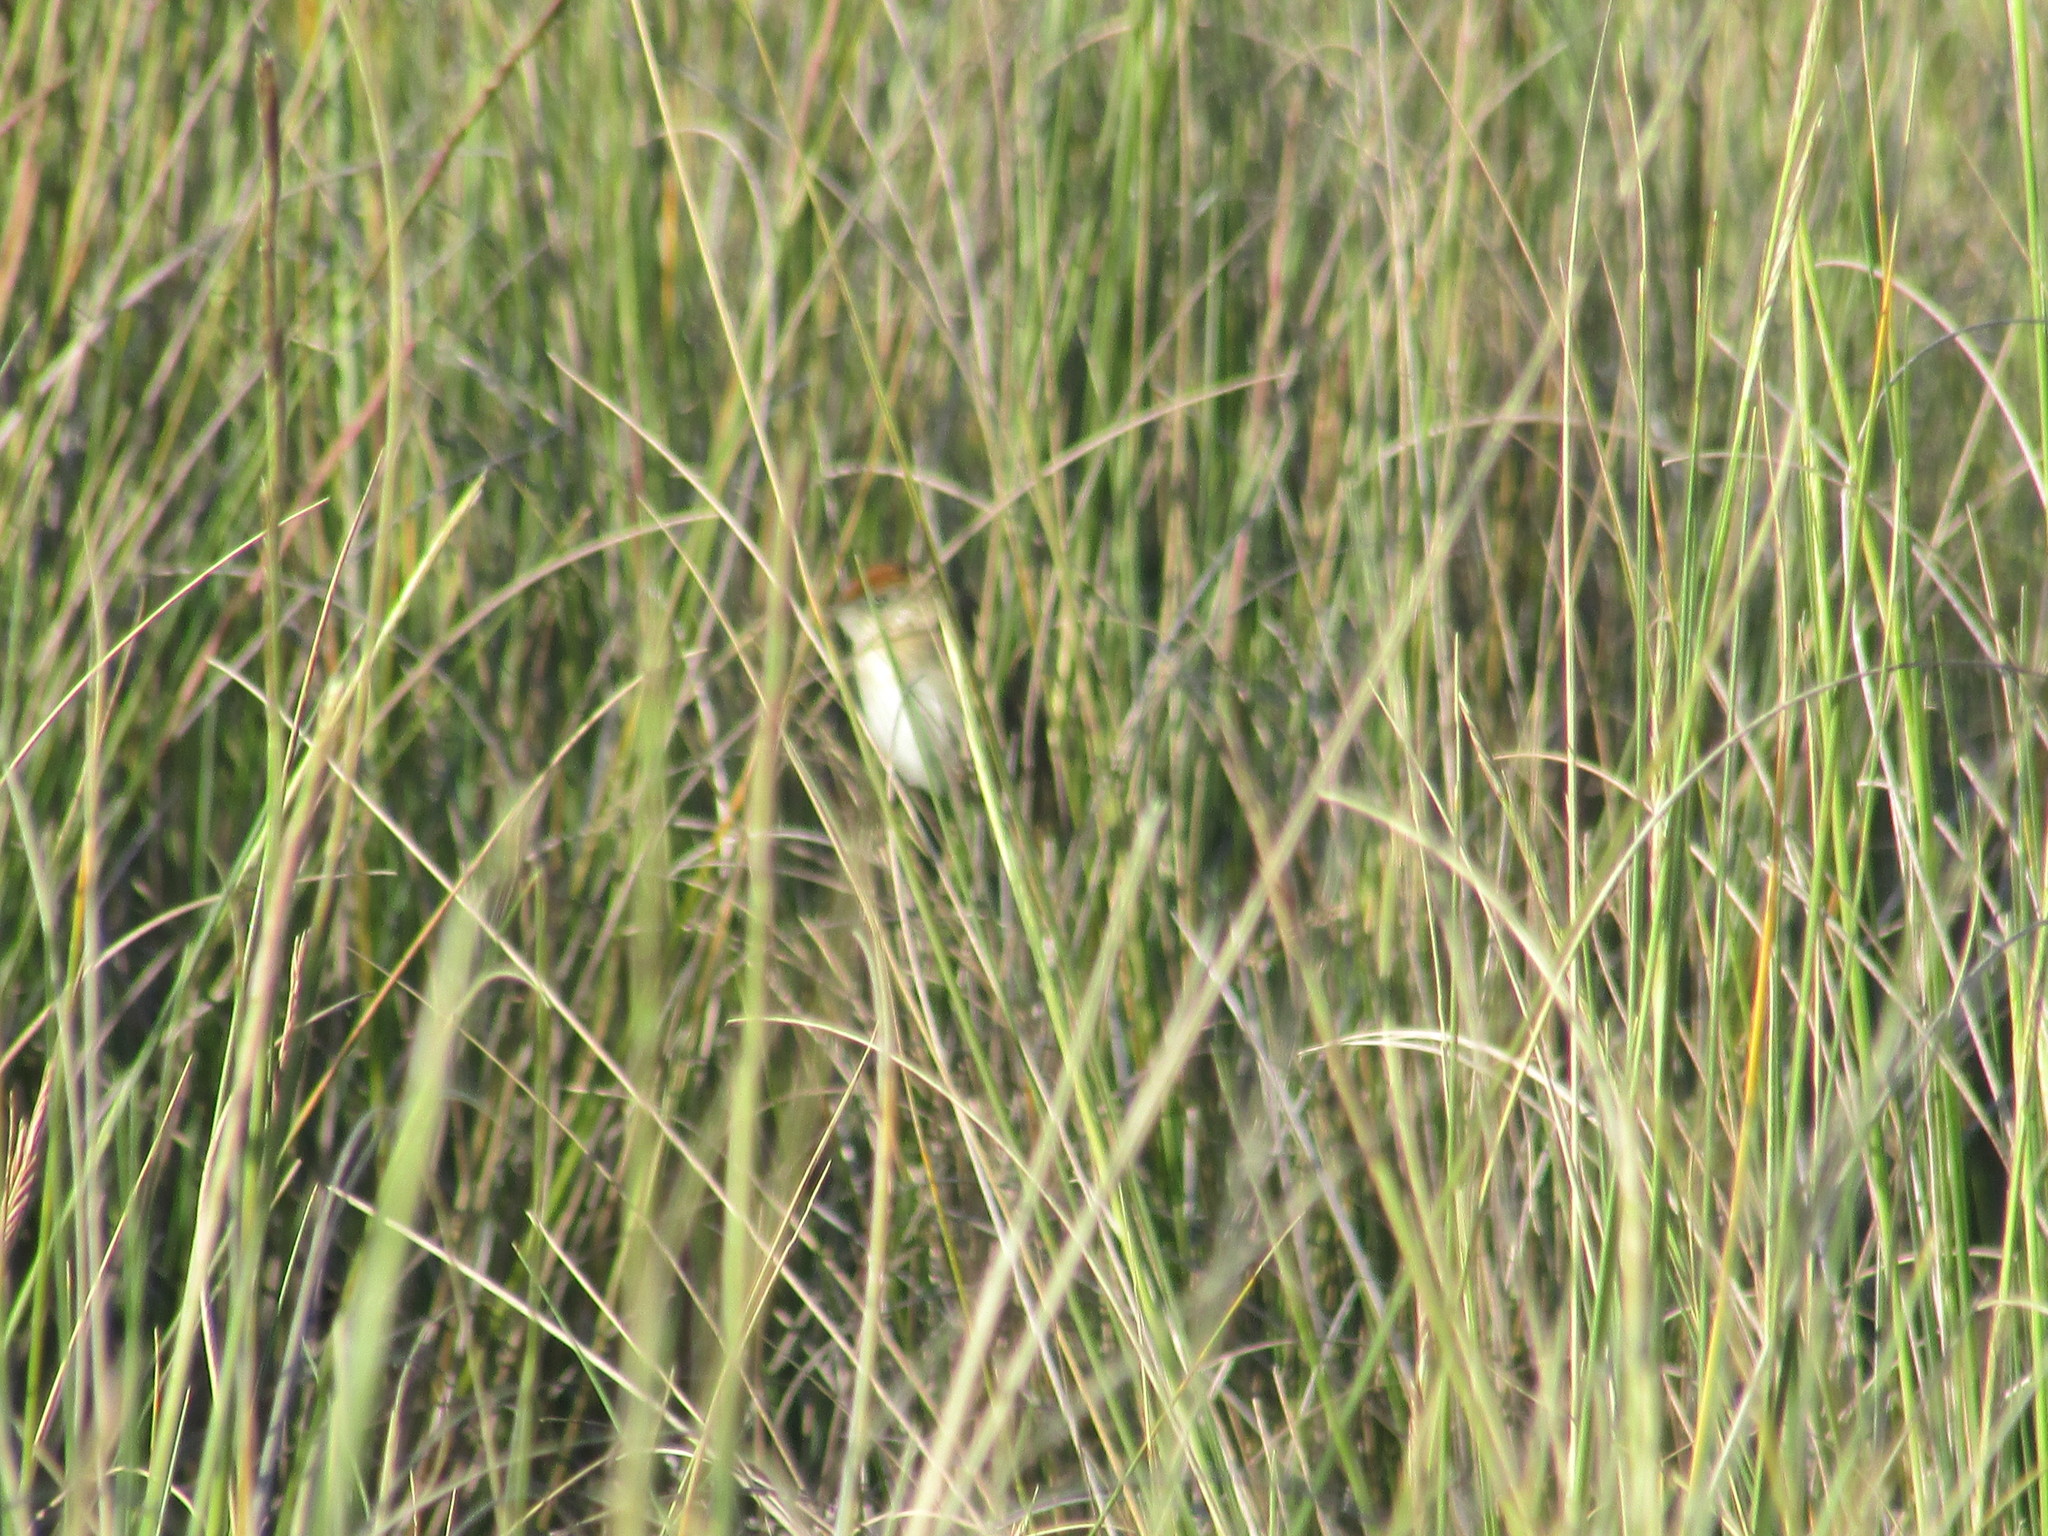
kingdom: Animalia
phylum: Chordata
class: Aves
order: Passeriformes
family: Furnariidae
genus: Spartonoica
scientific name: Spartonoica maluroides
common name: Bay-capped wren-spinetail
